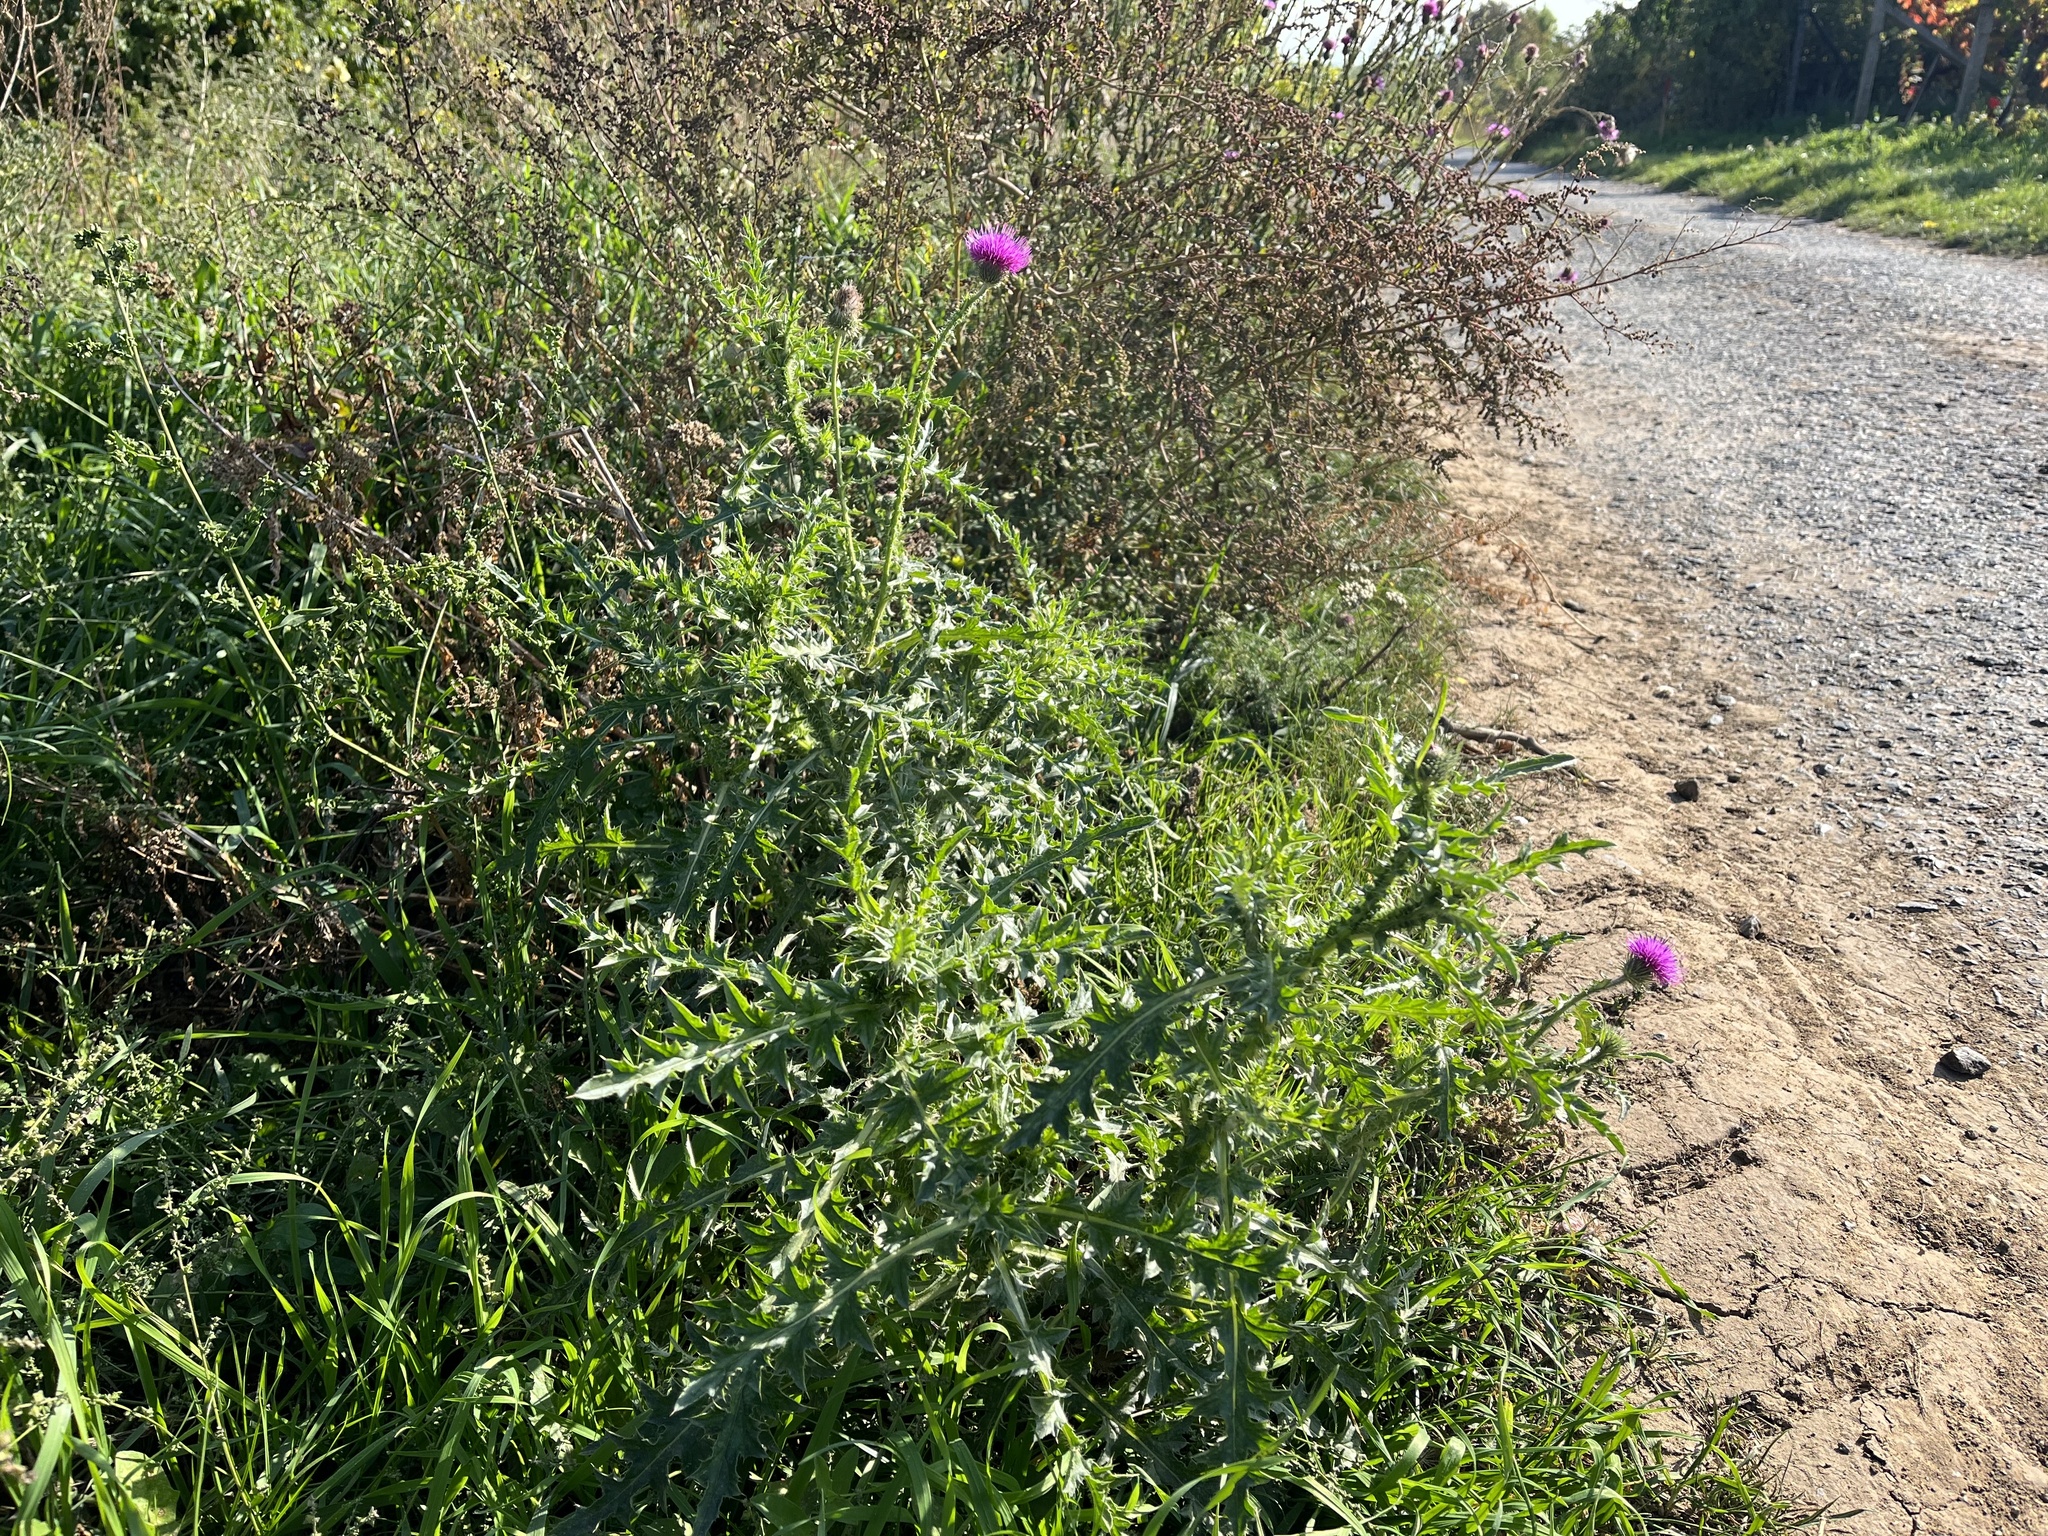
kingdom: Plantae
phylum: Tracheophyta
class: Magnoliopsida
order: Asterales
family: Asteraceae
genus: Carduus
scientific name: Carduus acanthoides
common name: Plumeless thistle
